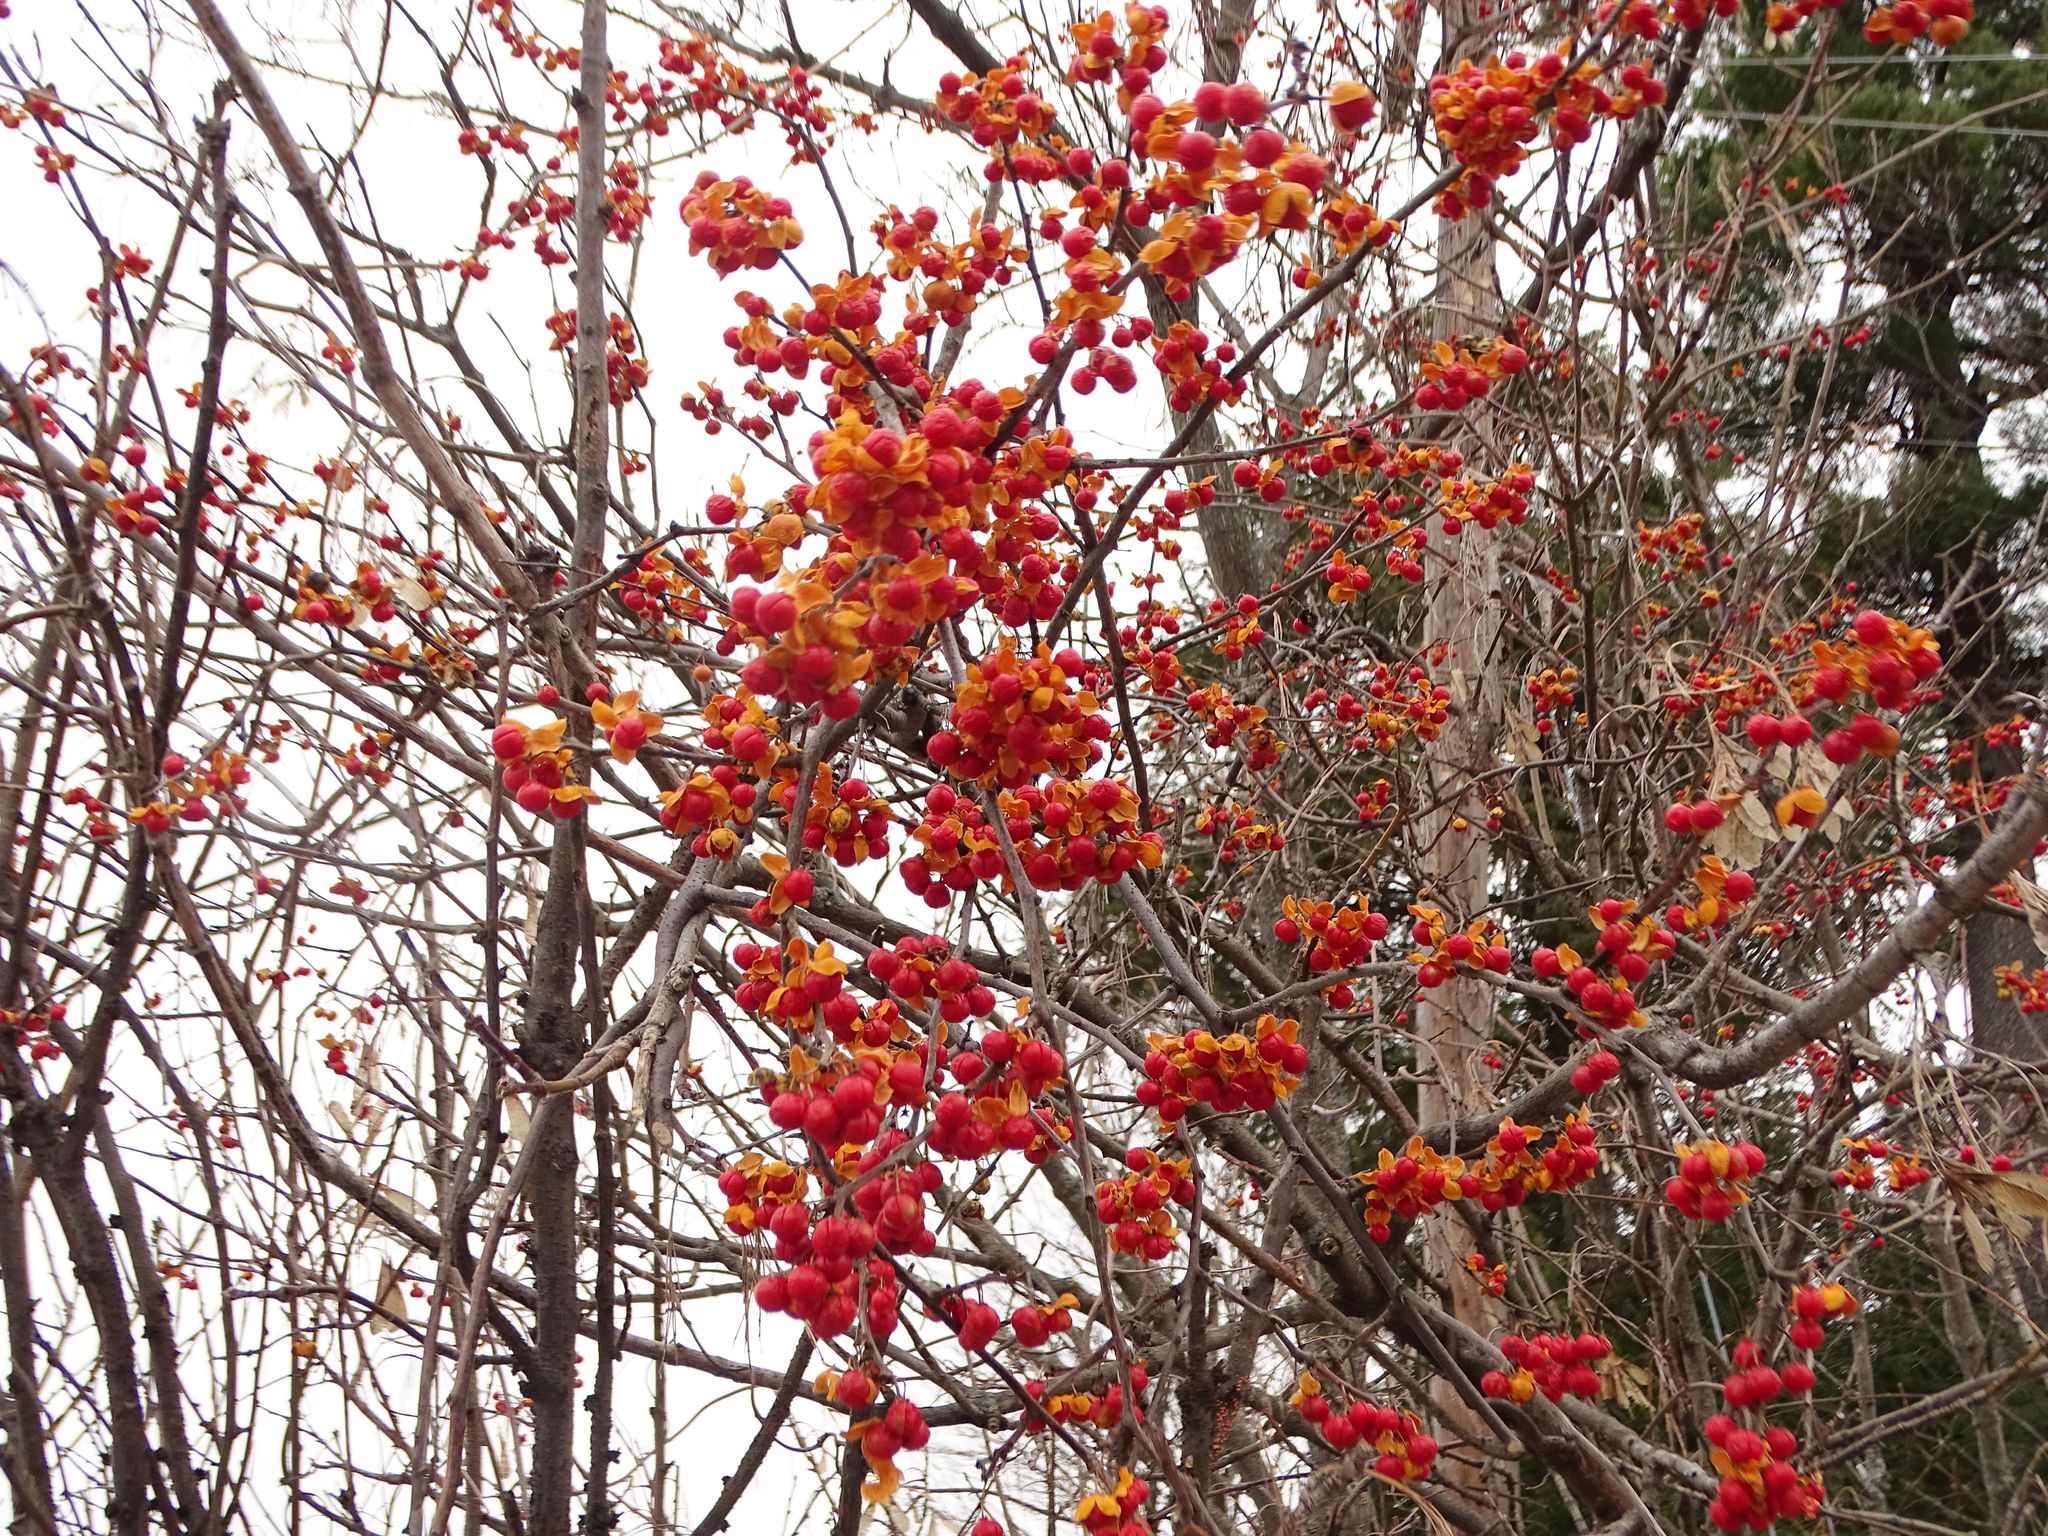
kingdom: Plantae
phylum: Tracheophyta
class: Magnoliopsida
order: Celastrales
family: Celastraceae
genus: Celastrus
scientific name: Celastrus orbiculatus
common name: Oriental bittersweet
